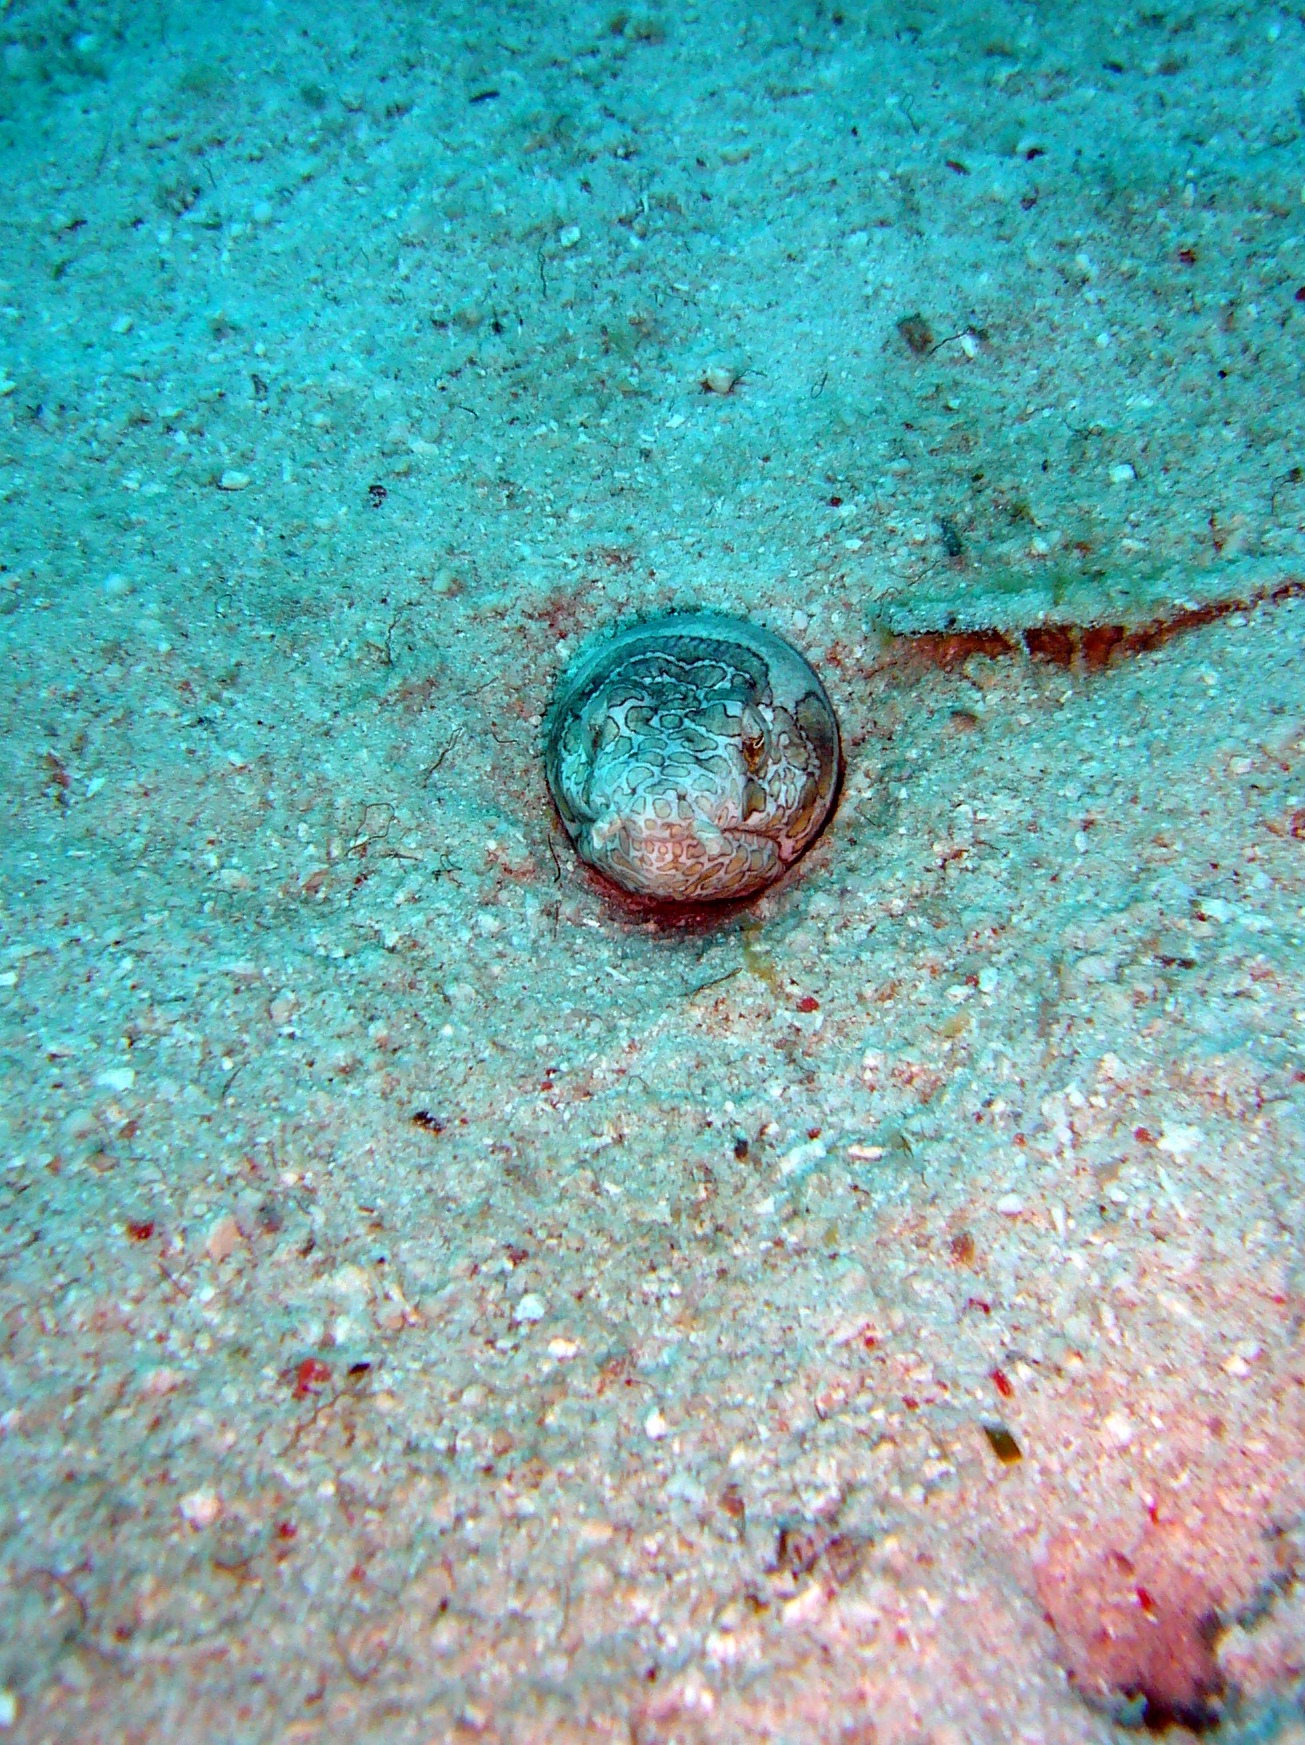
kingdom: Animalia
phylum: Chordata
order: Anguilliformes
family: Ophichthidae
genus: Ophichthus
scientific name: Ophichthus bonaparti
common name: Napoleon snake eel
